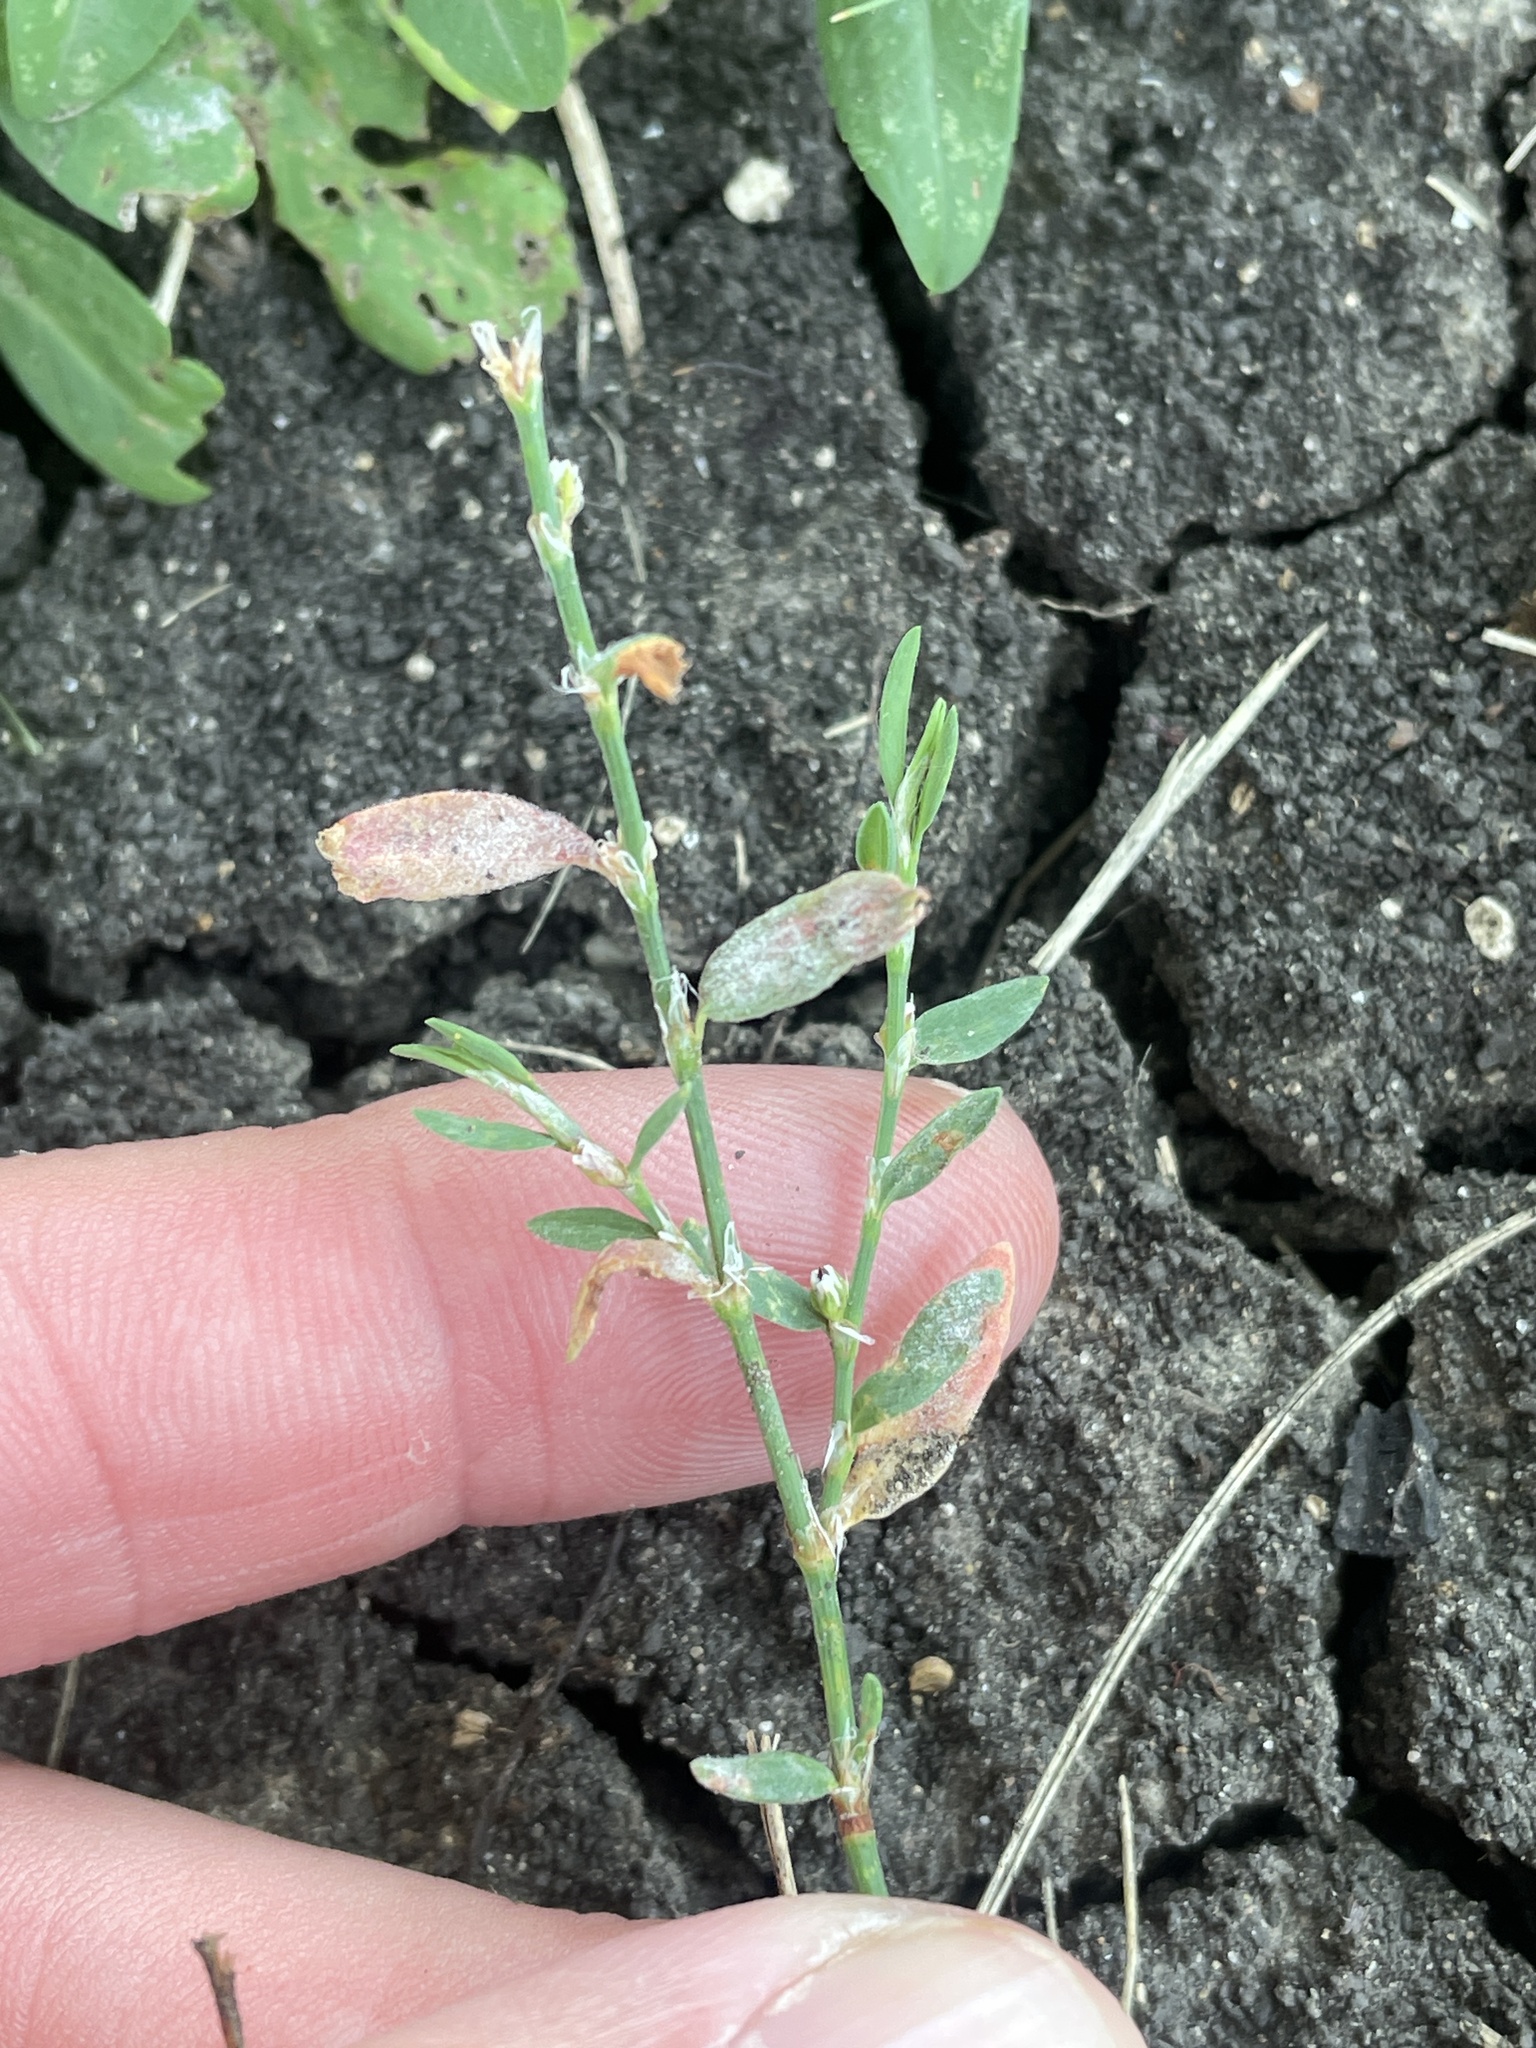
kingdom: Plantae
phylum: Tracheophyta
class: Magnoliopsida
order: Caryophyllales
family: Polygonaceae
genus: Polygonum
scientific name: Polygonum aviculare
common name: Prostrate knotweed
